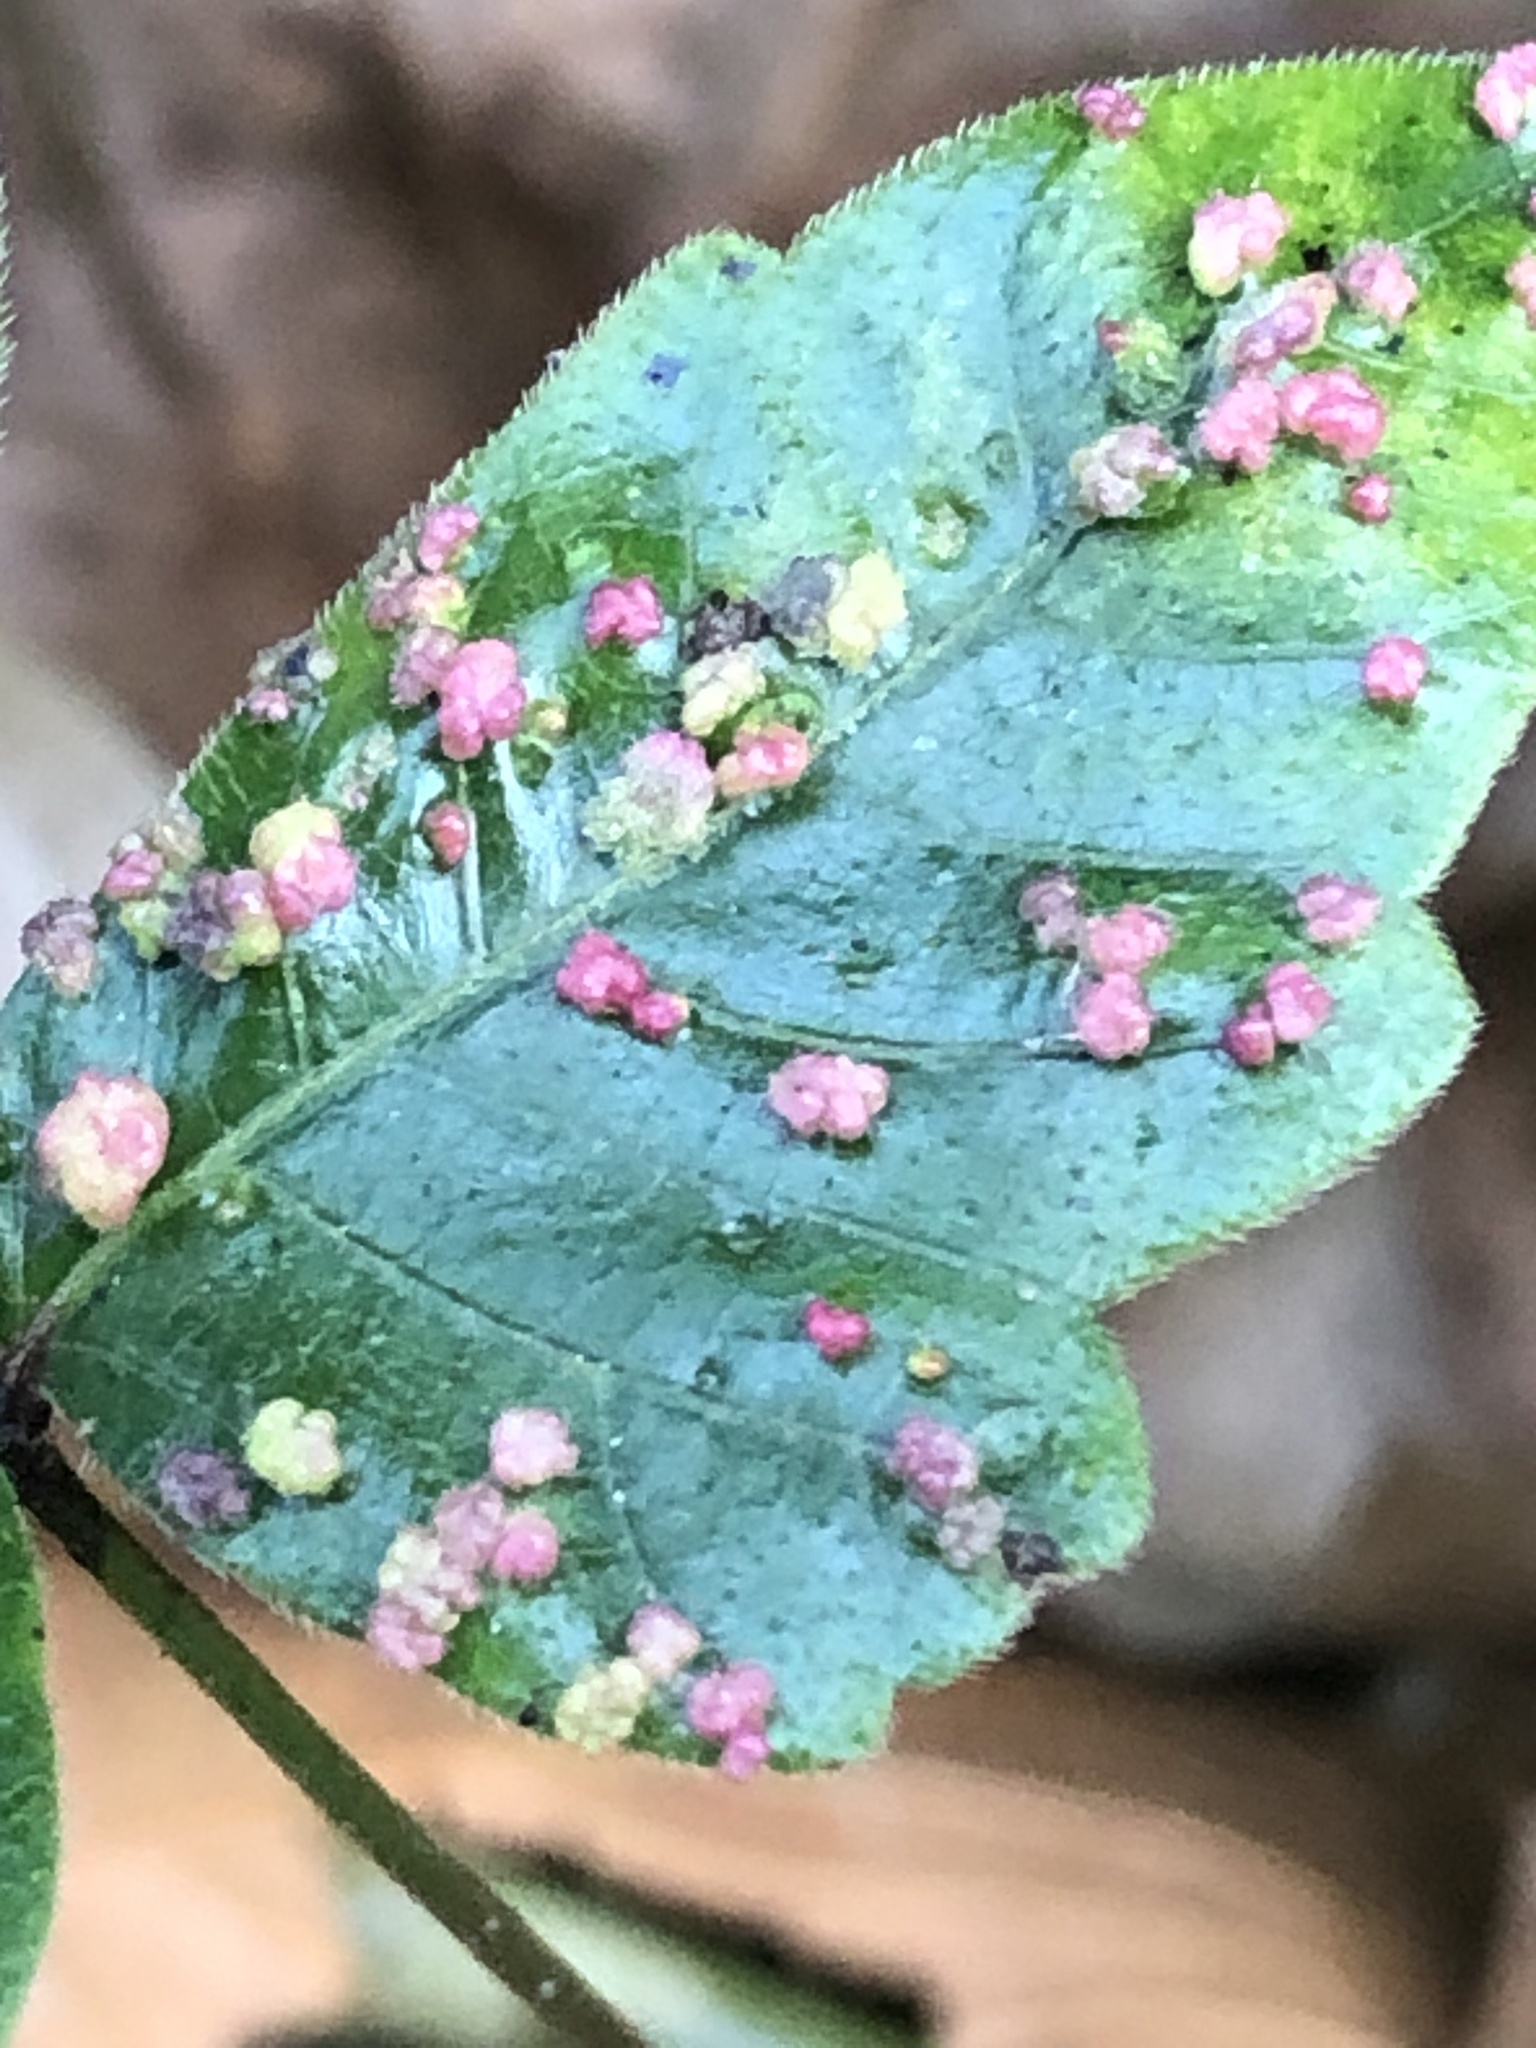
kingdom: Animalia
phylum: Arthropoda
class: Arachnida
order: Trombidiformes
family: Eriophyidae
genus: Aculops
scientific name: Aculops
